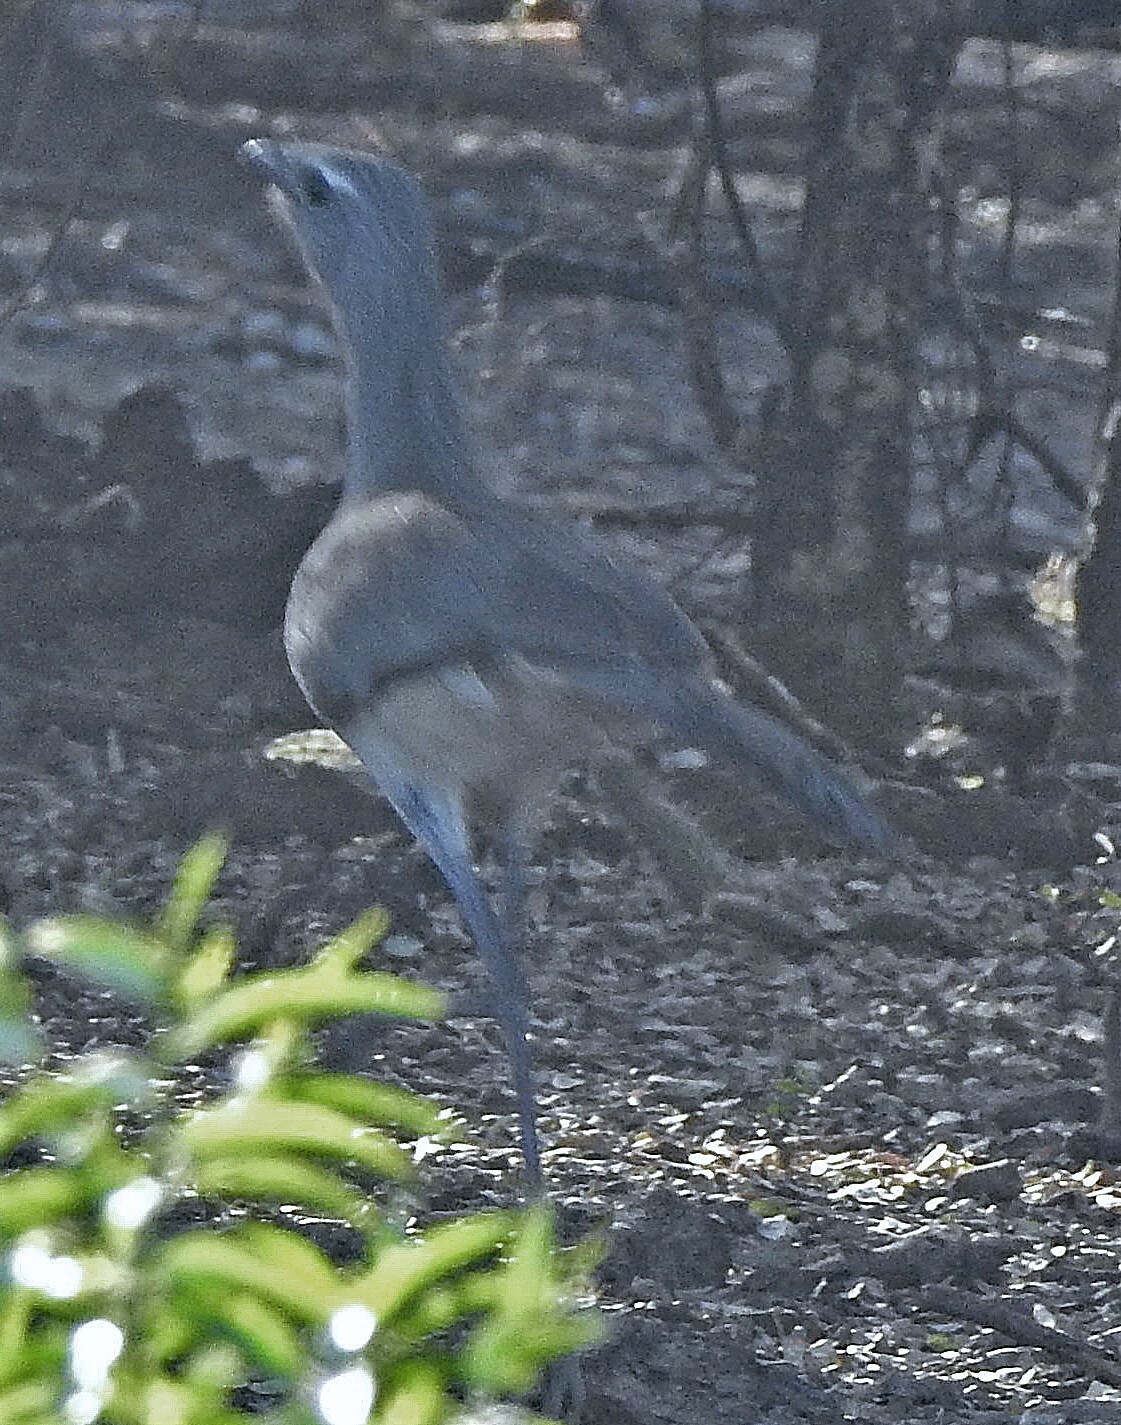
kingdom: Animalia
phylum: Chordata
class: Aves
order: Cariamiformes
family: Cariamidae
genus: Chunga
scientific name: Chunga burmeisteri
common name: Black-legged seriema
